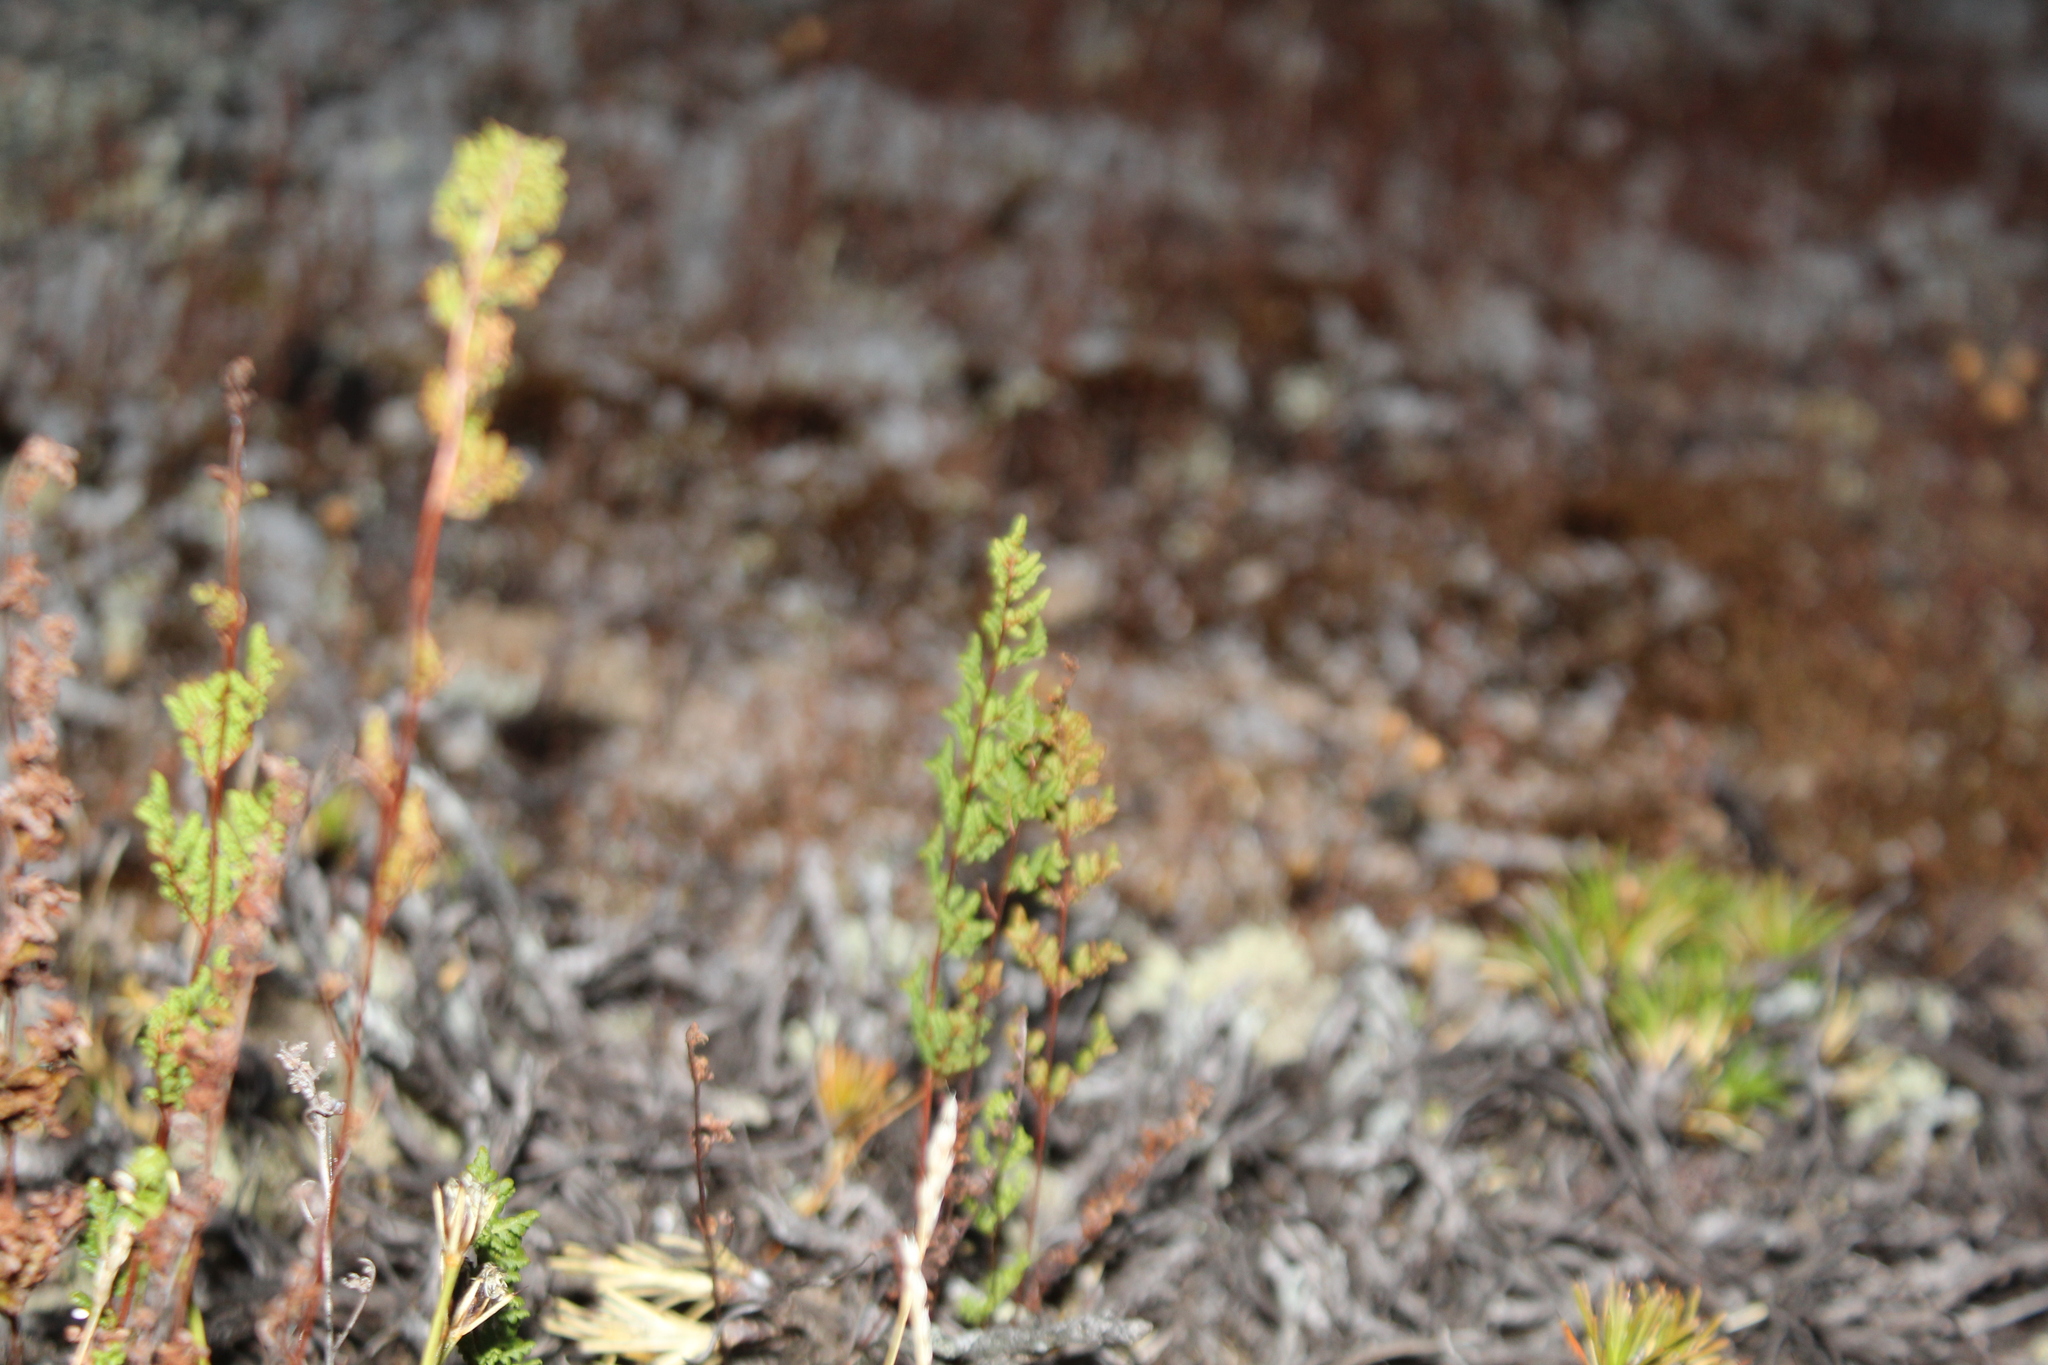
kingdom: Plantae
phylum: Tracheophyta
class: Polypodiopsida
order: Polypodiales
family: Pteridaceae
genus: Cheilanthes
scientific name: Cheilanthes sieberi
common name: Mulga fern
